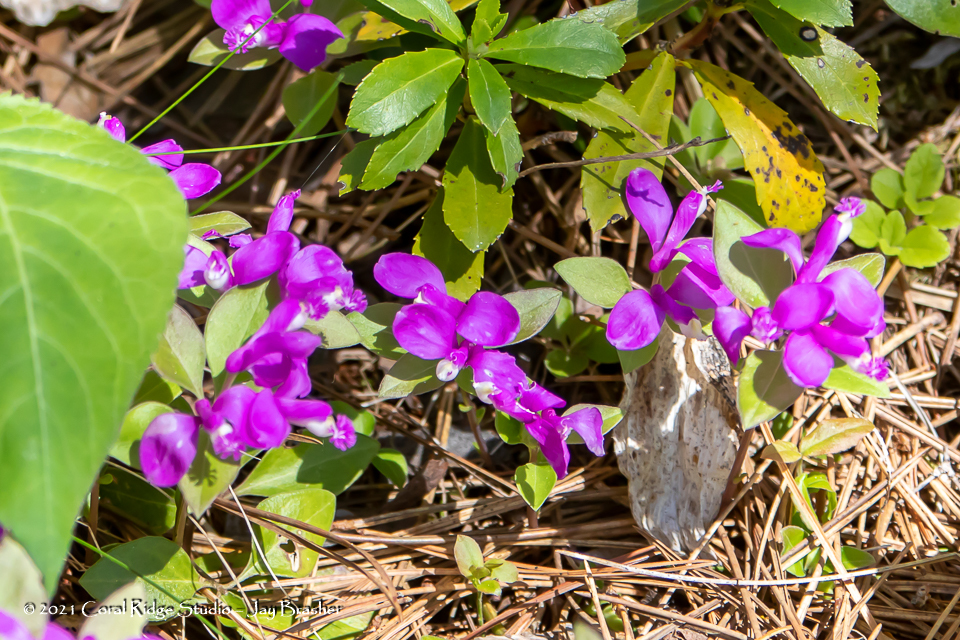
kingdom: Plantae
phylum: Tracheophyta
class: Magnoliopsida
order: Fabales
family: Polygalaceae
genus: Polygaloides
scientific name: Polygaloides paucifolia
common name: Bird-on-the-wing
